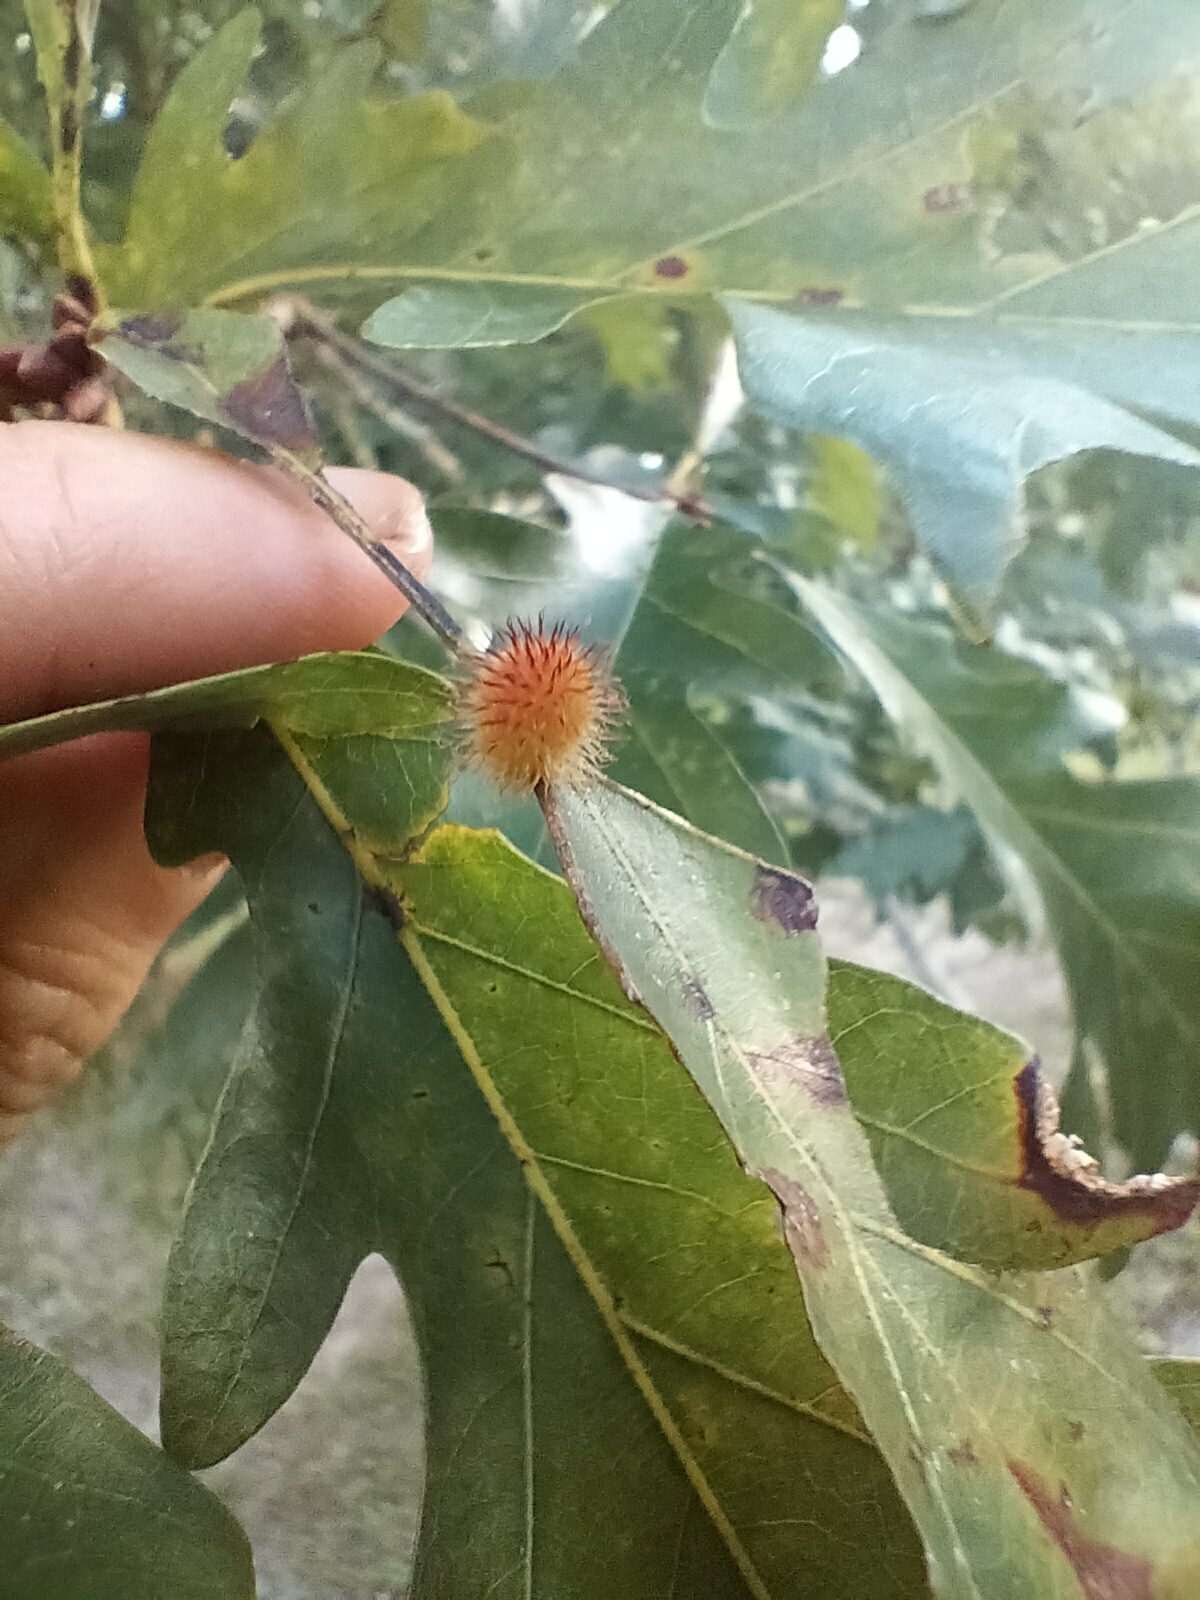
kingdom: Animalia
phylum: Arthropoda
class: Insecta
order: Hymenoptera
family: Cynipidae
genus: Acraspis
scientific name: Acraspis erinacei
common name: Hedgehog gall wasp
